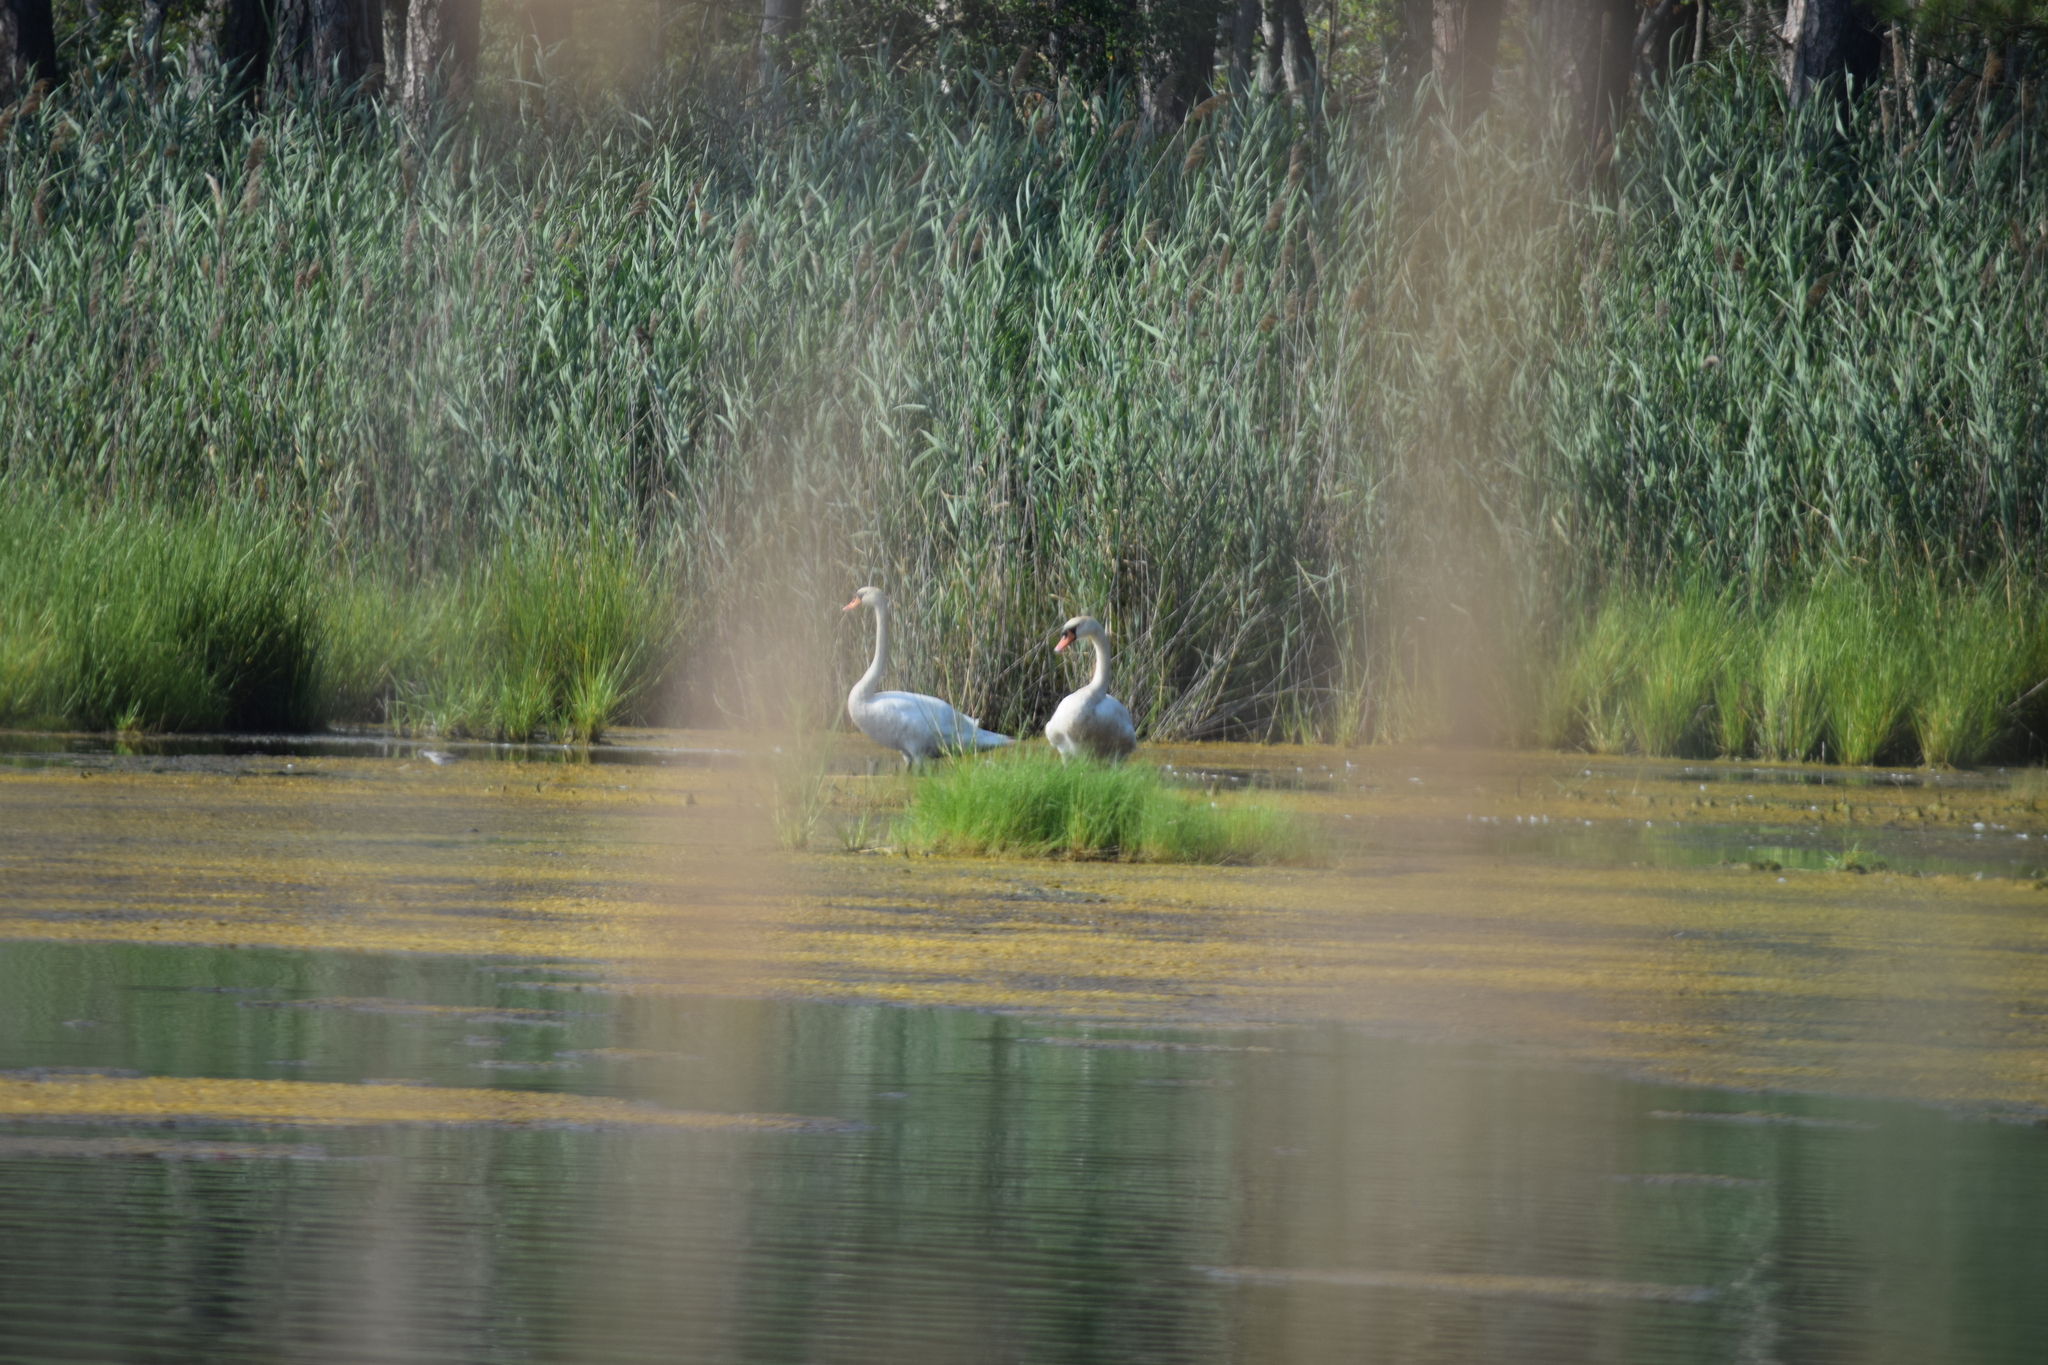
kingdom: Animalia
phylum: Chordata
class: Aves
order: Anseriformes
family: Anatidae
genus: Cygnus
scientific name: Cygnus olor
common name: Mute swan
